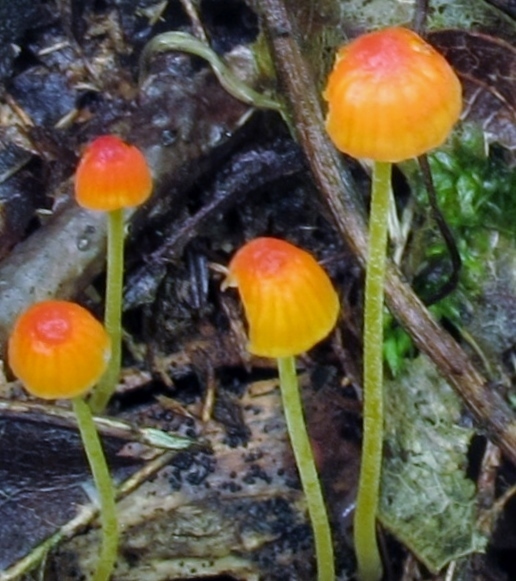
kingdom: Fungi
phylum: Basidiomycota
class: Agaricomycetes
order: Agaricales
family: Mycenaceae
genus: Mycena
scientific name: Mycena acicula
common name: Orange bonnet
